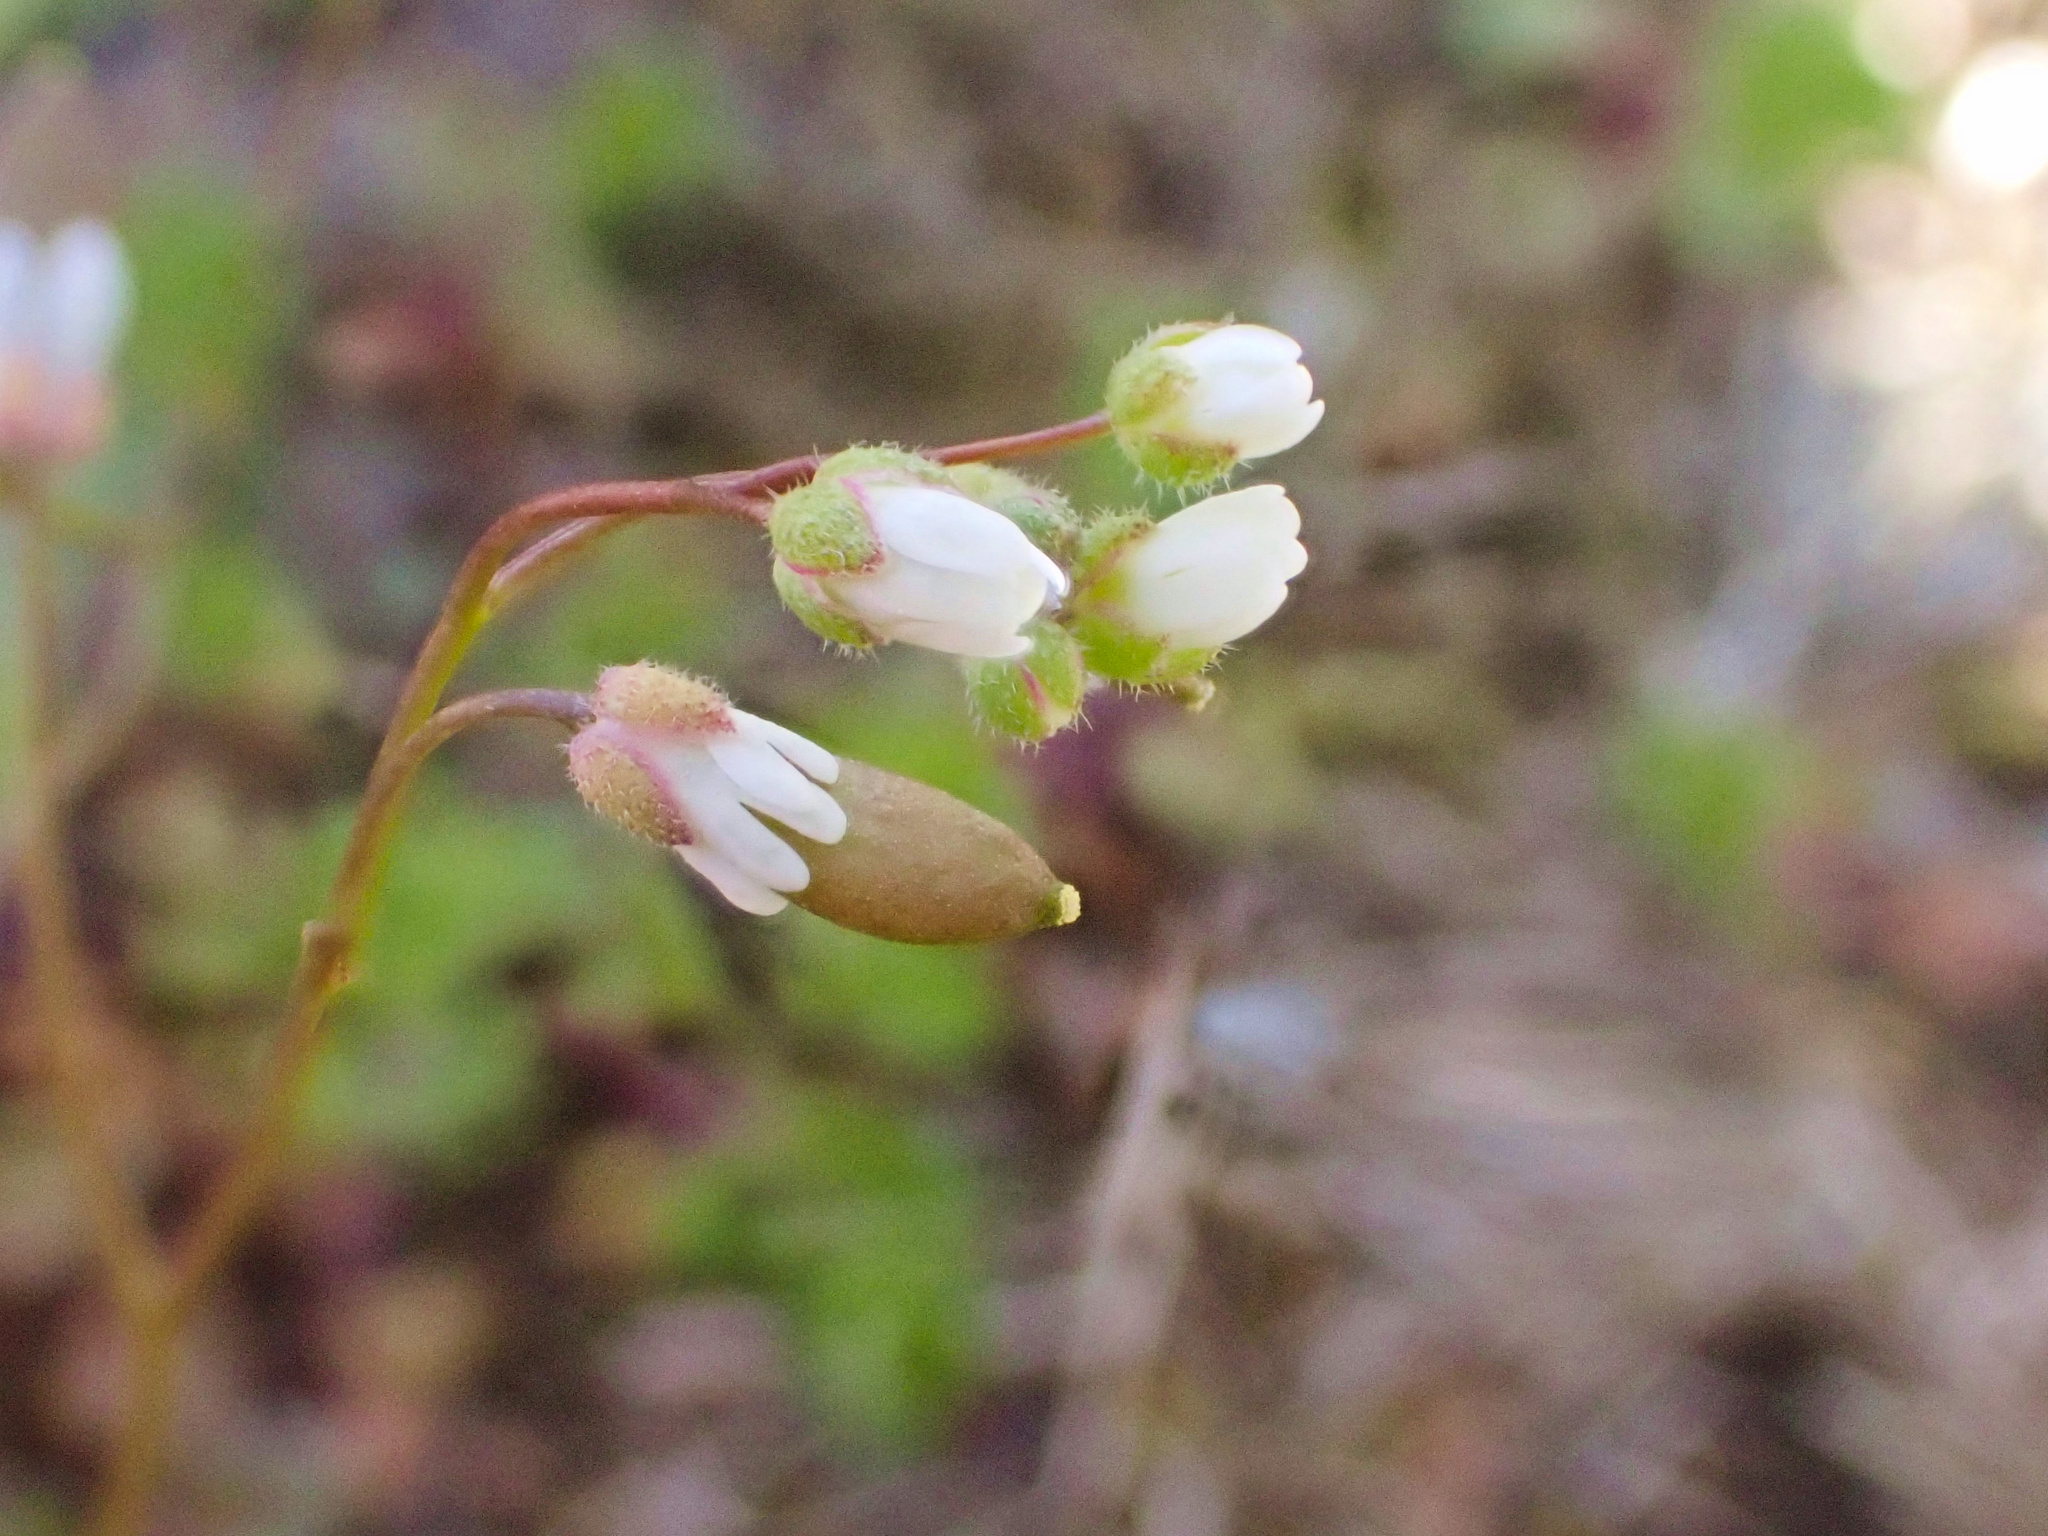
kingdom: Plantae
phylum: Tracheophyta
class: Magnoliopsida
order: Brassicales
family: Brassicaceae
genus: Draba
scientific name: Draba verna
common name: Spring draba
